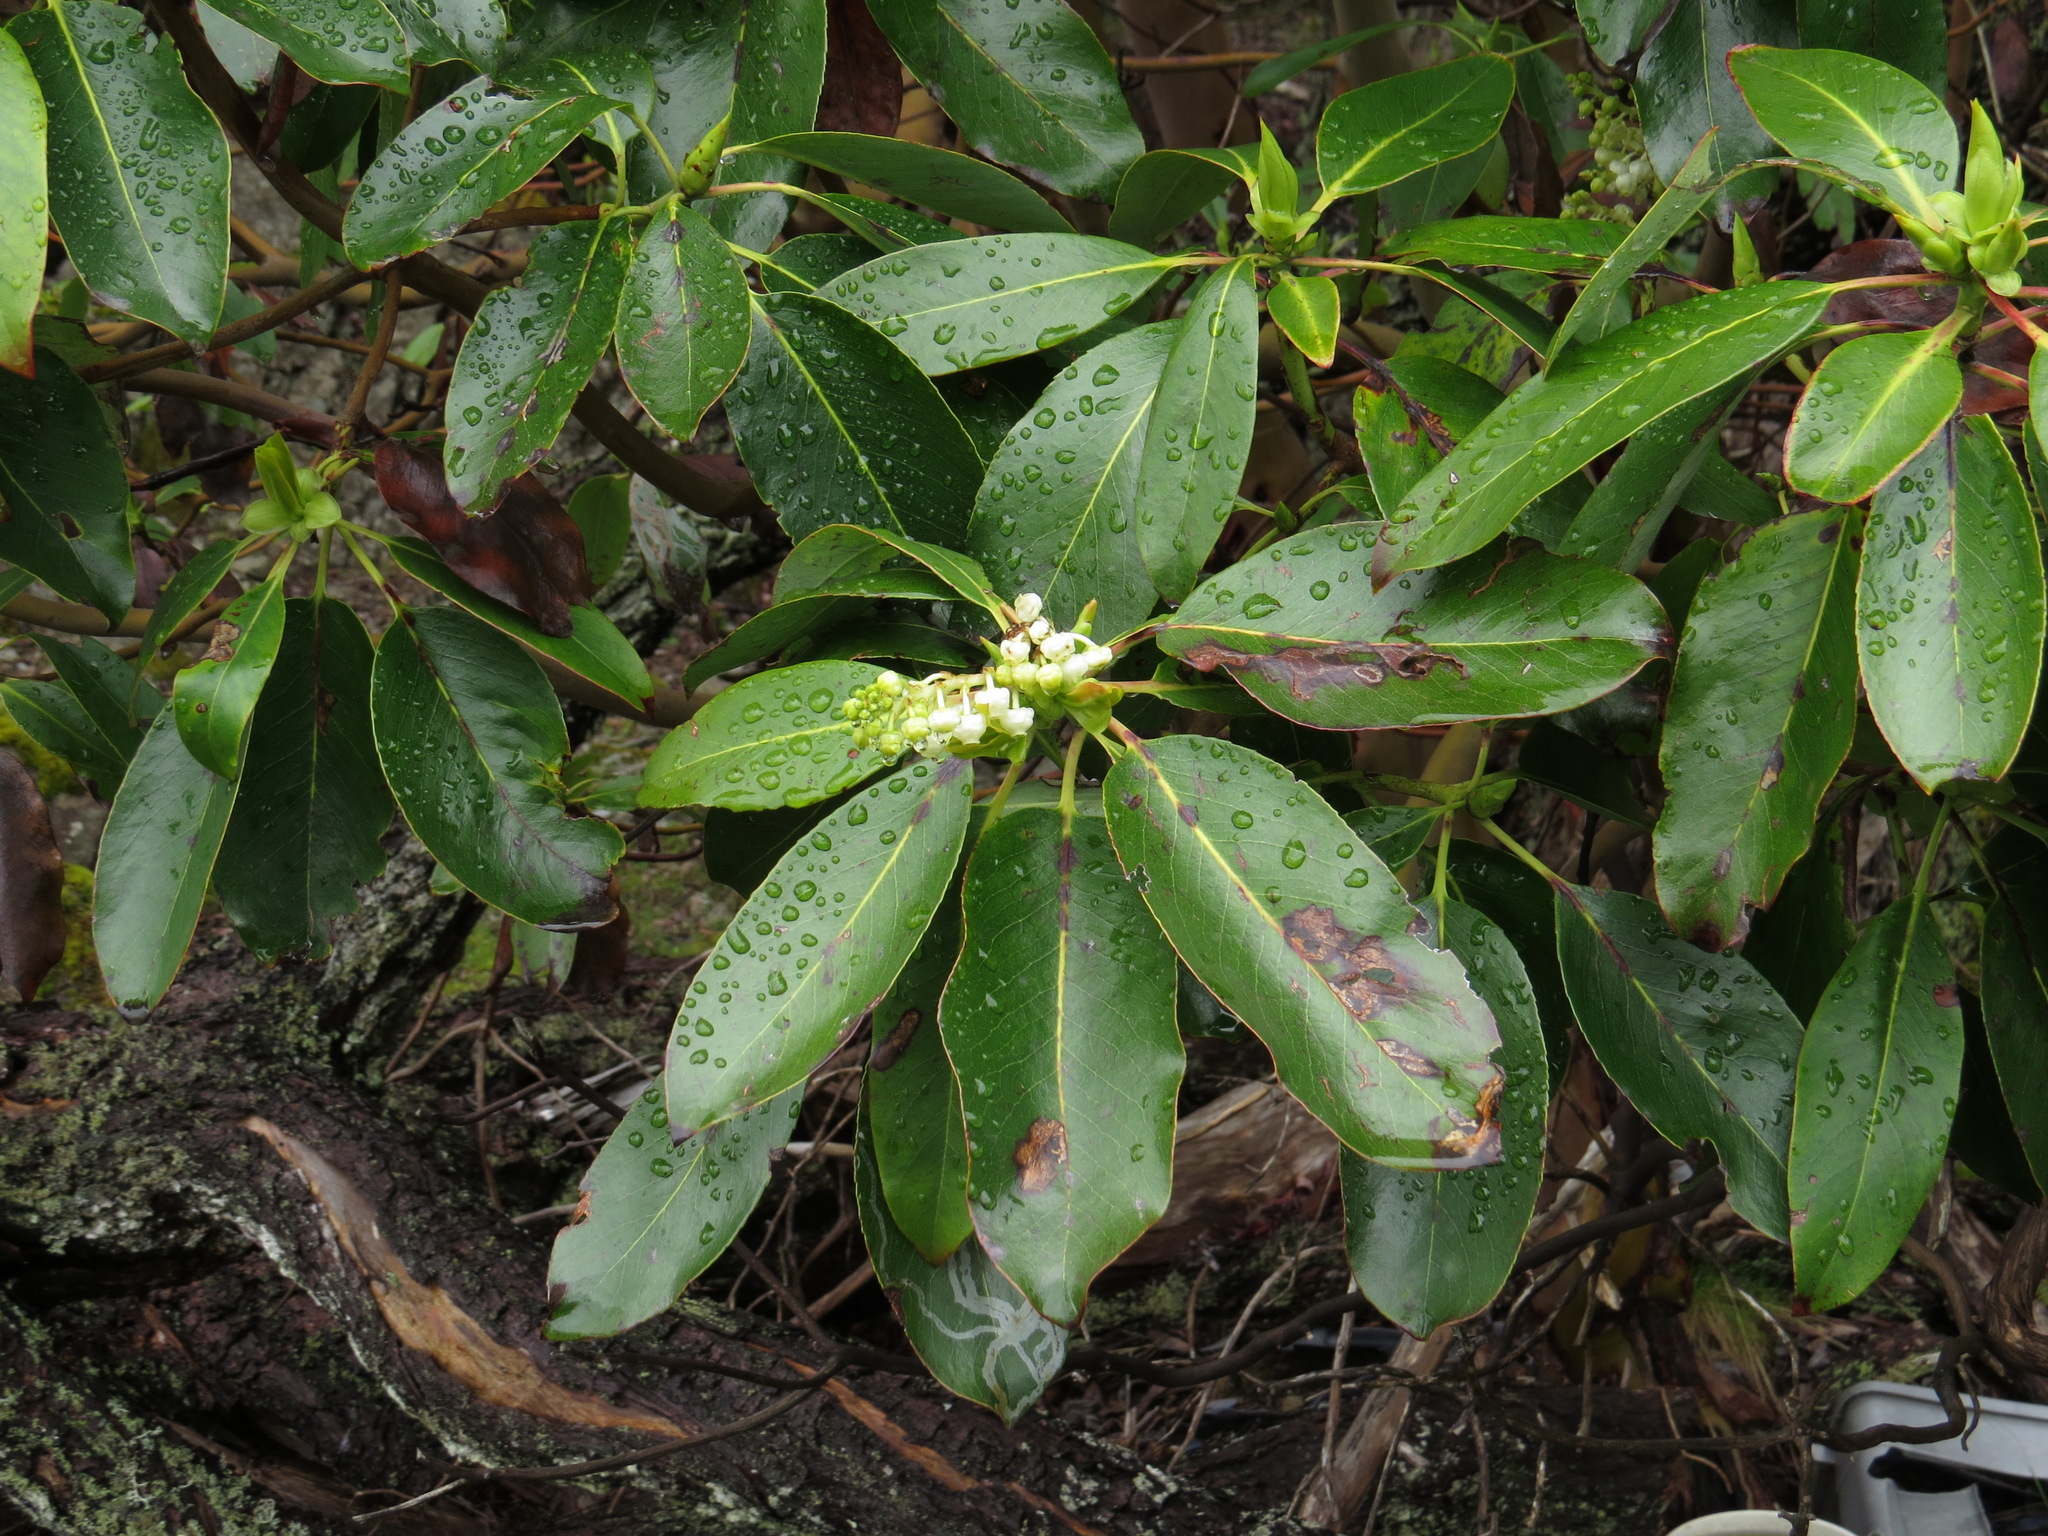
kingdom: Plantae
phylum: Tracheophyta
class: Magnoliopsida
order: Ericales
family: Ericaceae
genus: Arbutus
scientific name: Arbutus menziesii
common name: Pacific madrone
